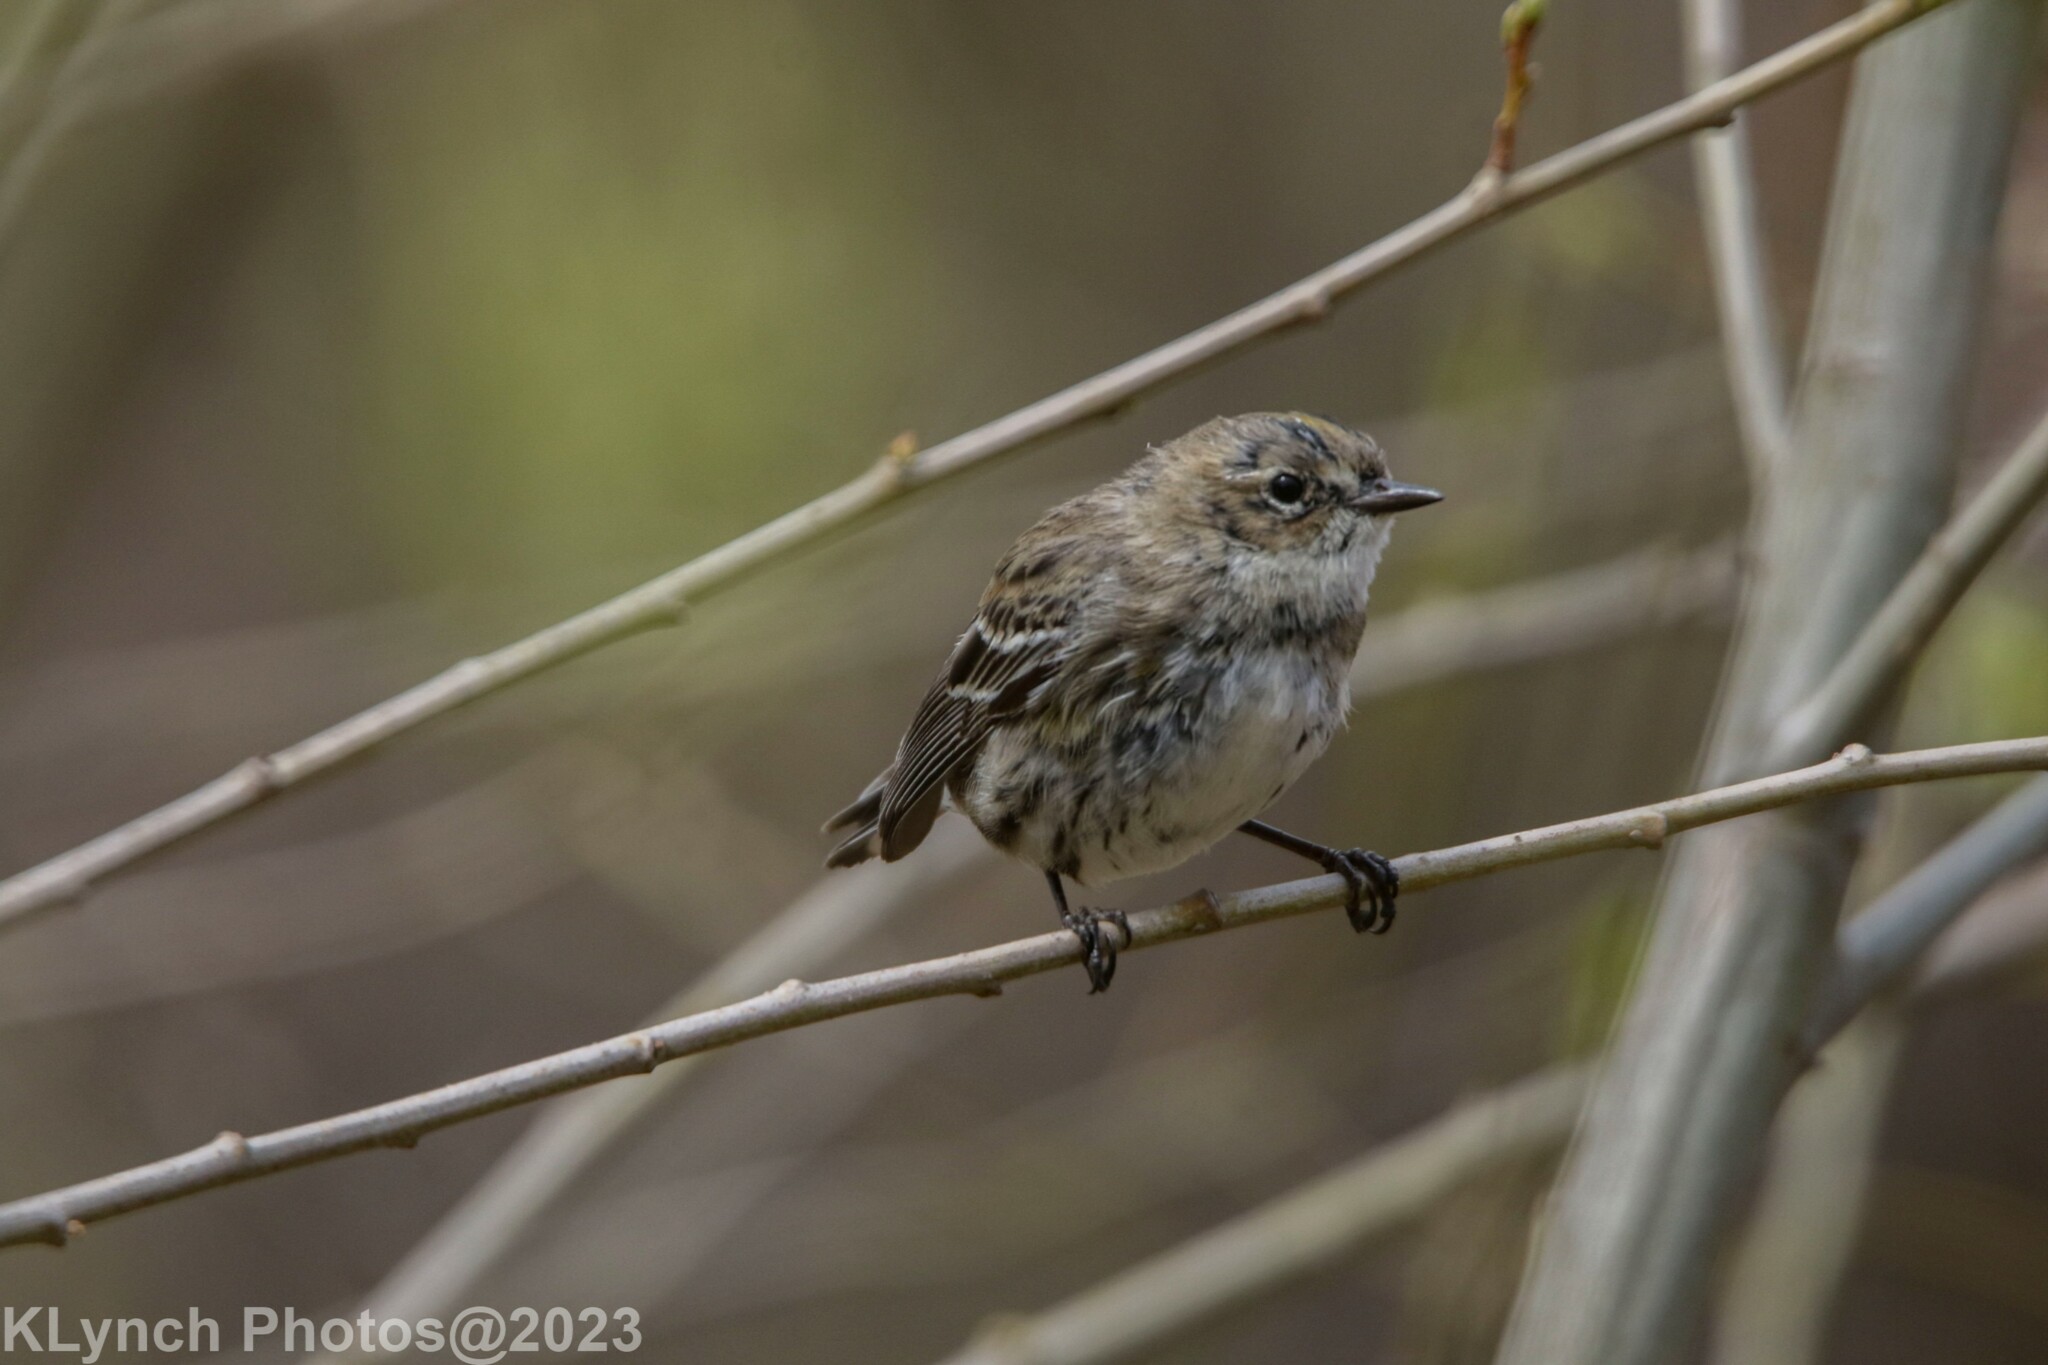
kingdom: Animalia
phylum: Chordata
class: Aves
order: Passeriformes
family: Parulidae
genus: Setophaga
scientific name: Setophaga coronata
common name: Myrtle warbler
